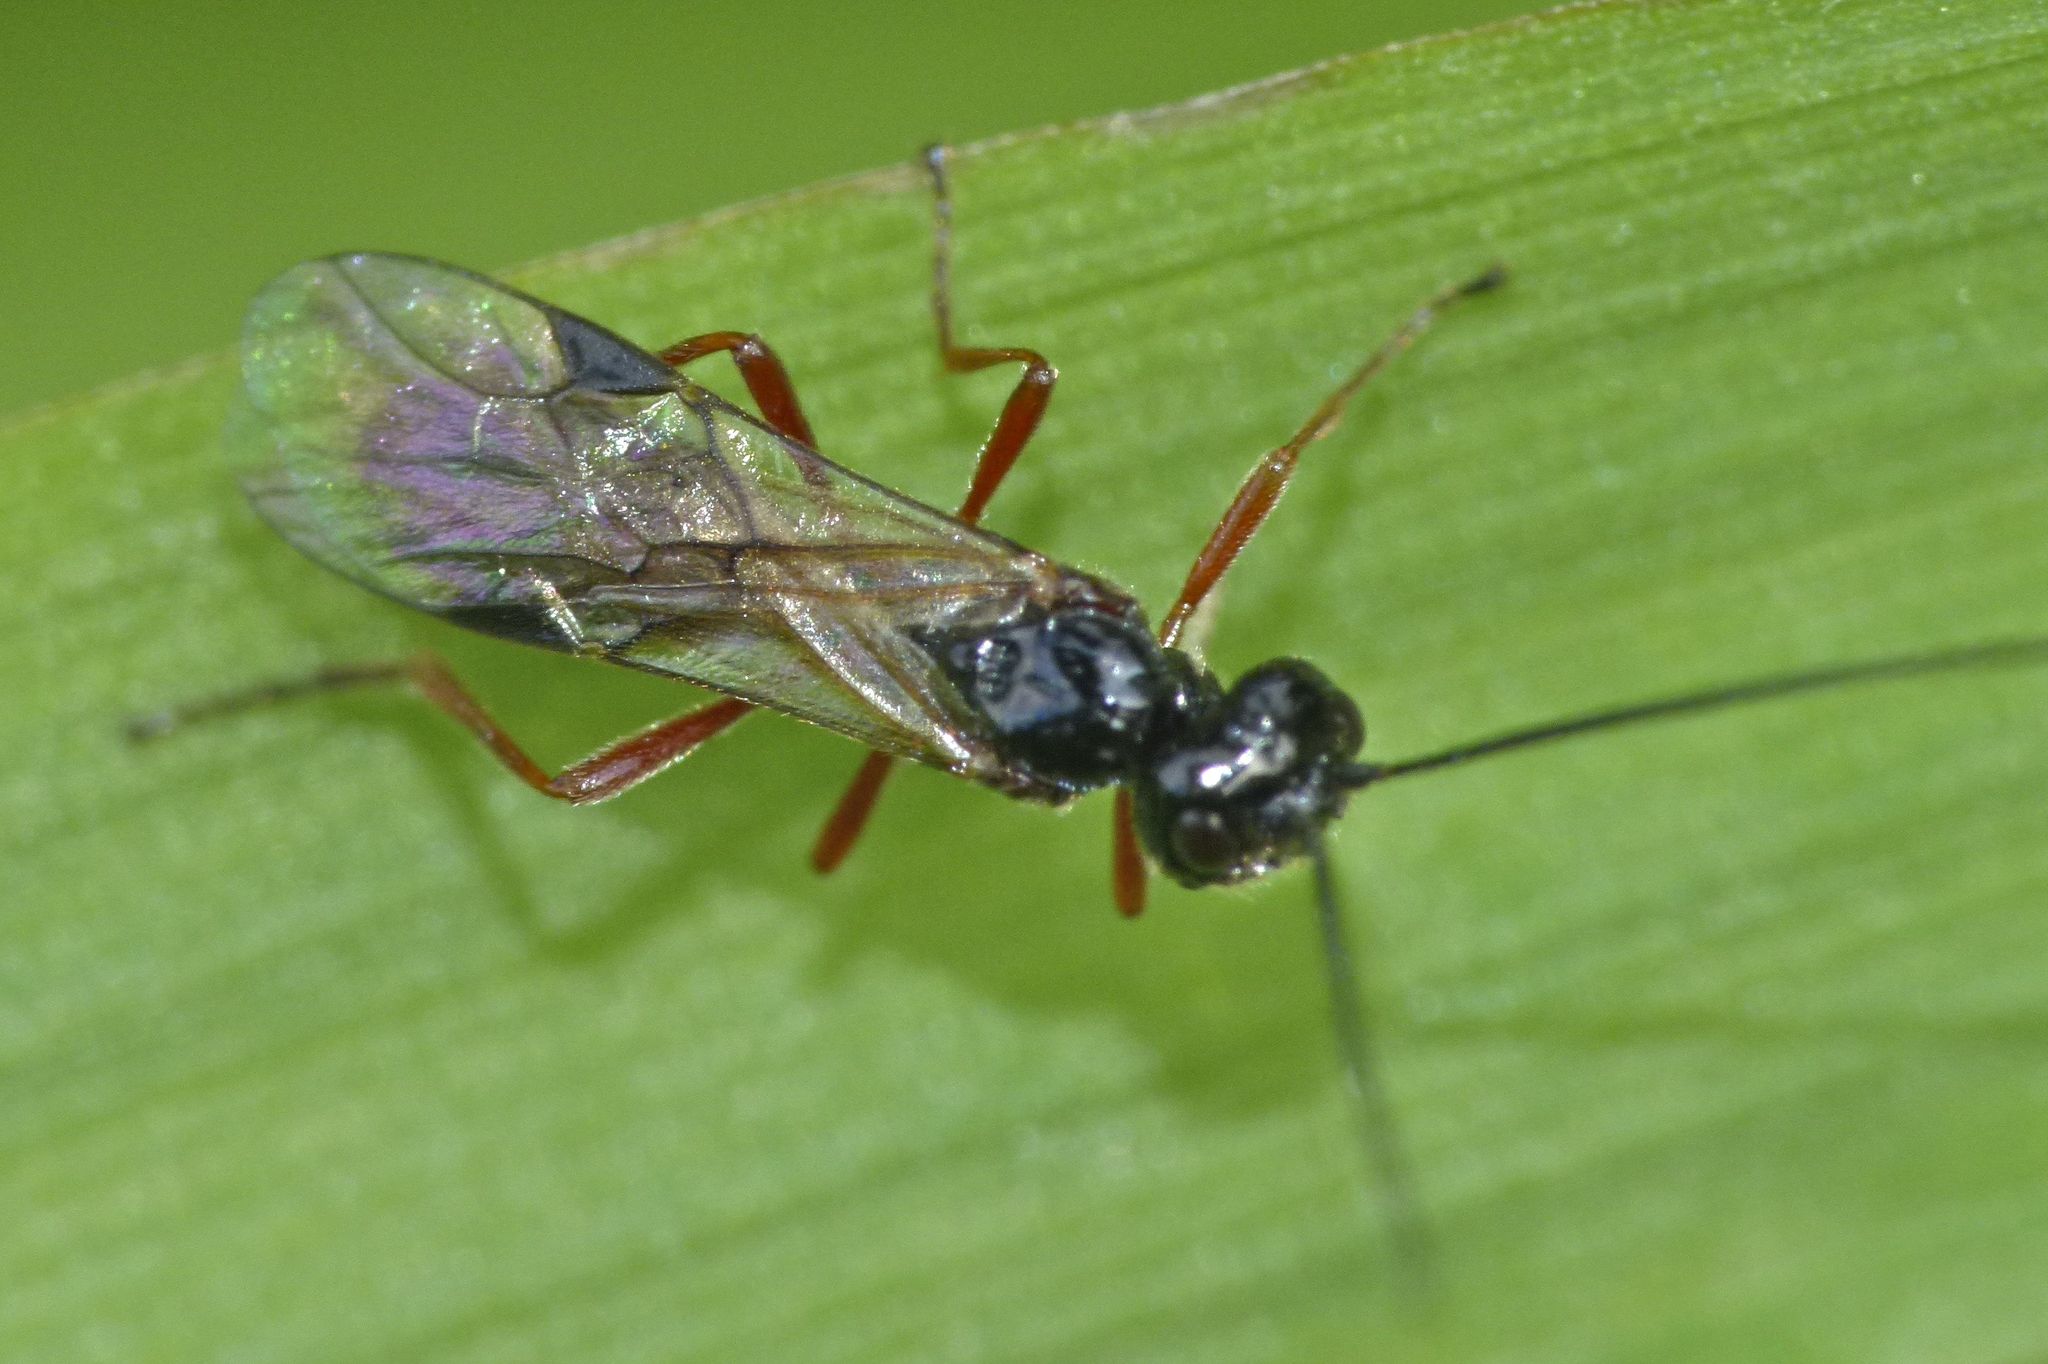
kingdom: Animalia
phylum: Arthropoda
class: Insecta
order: Hymenoptera
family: Braconidae
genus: Alysia
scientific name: Alysia manducator
